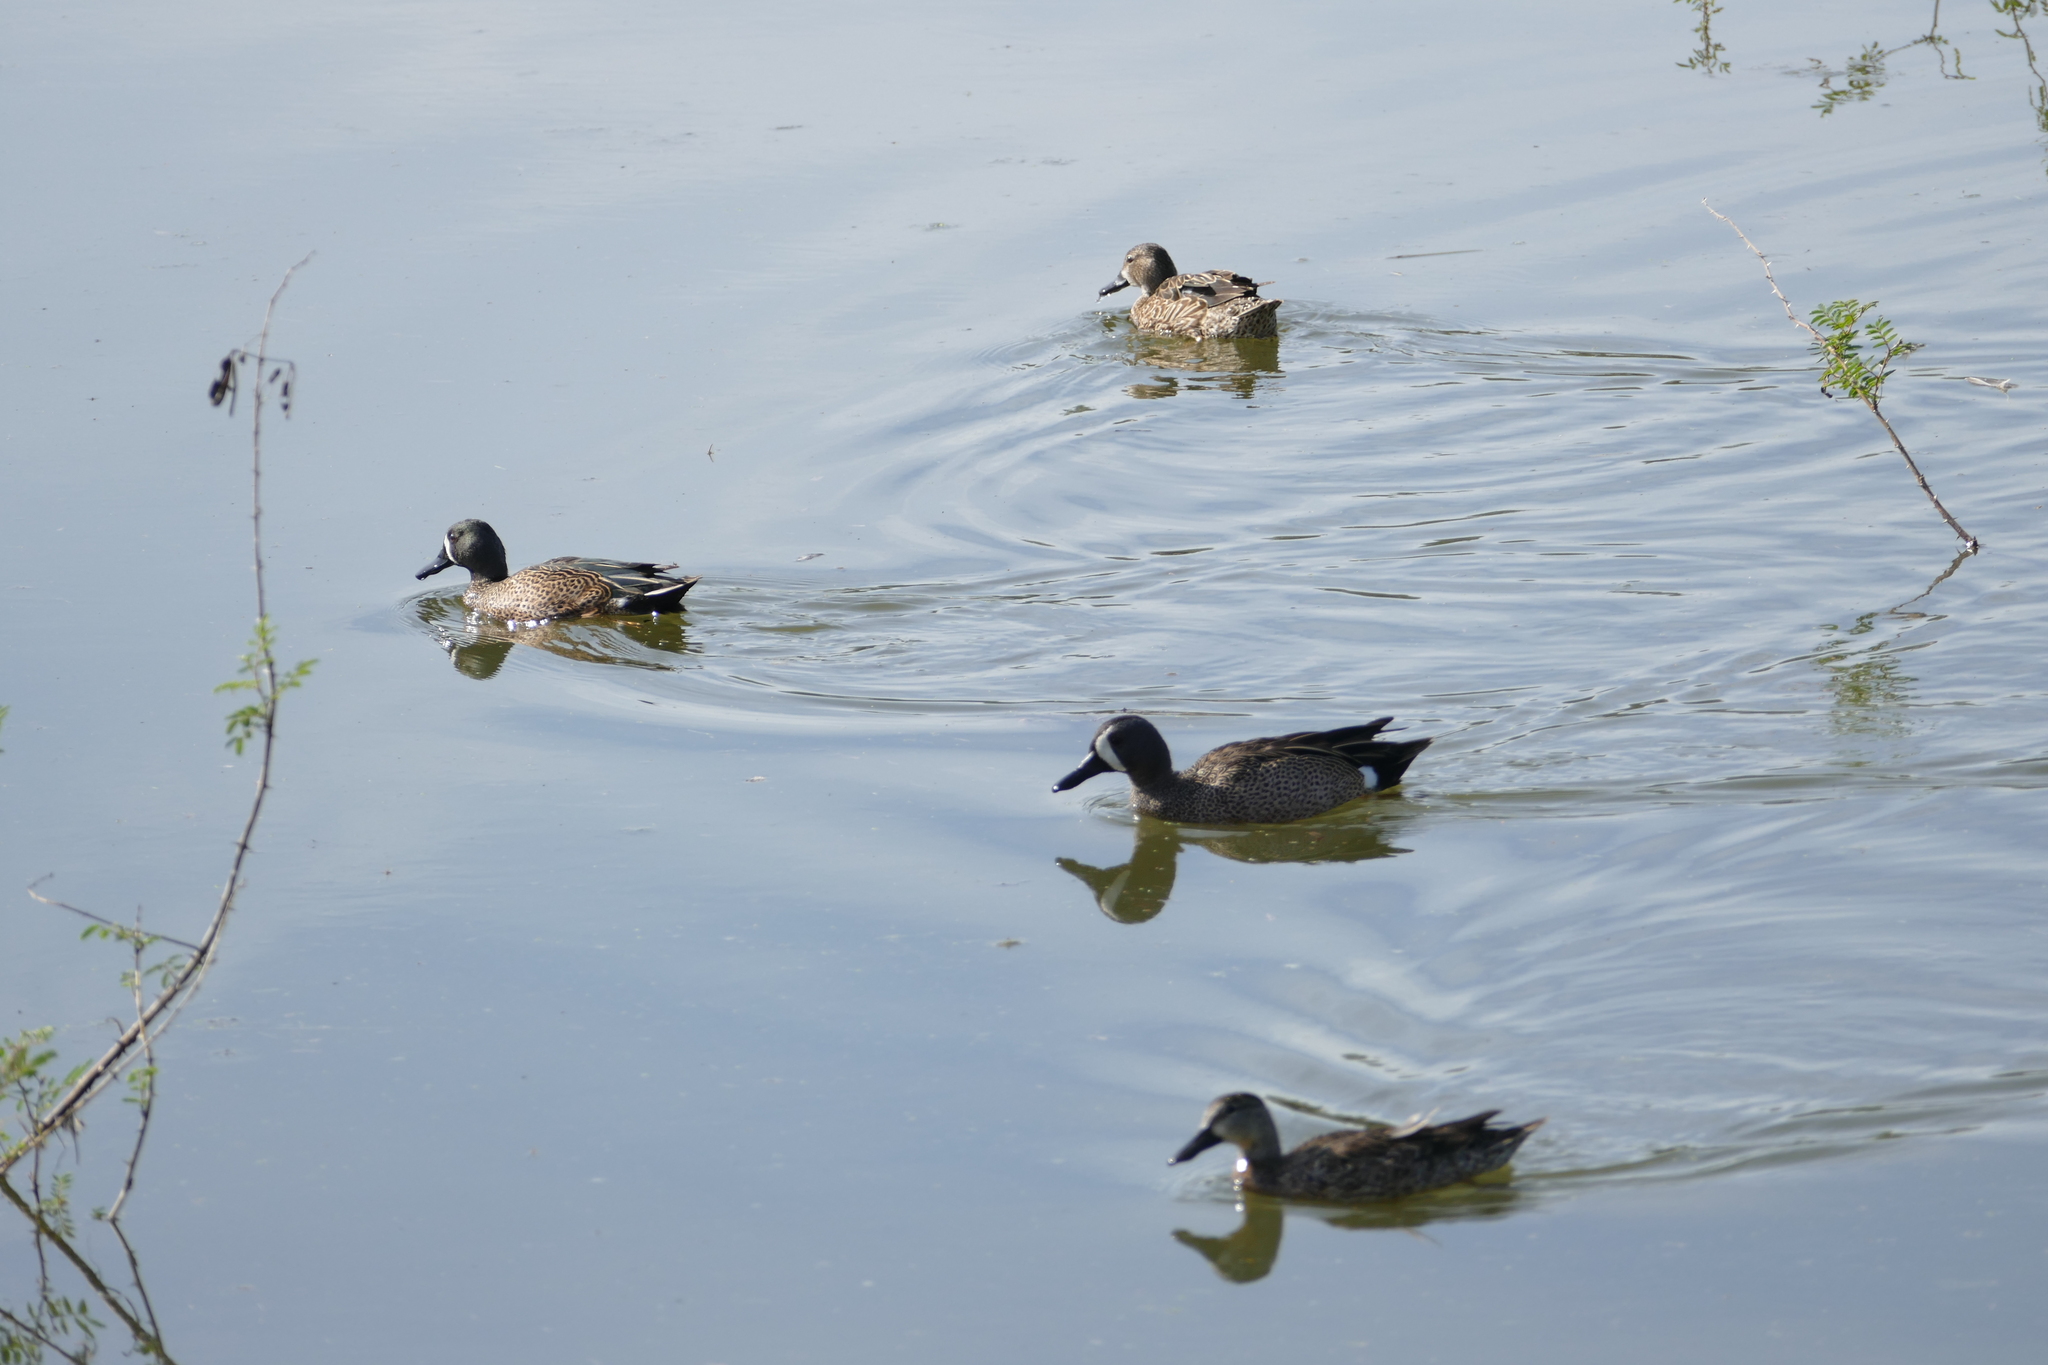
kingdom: Animalia
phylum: Chordata
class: Aves
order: Anseriformes
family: Anatidae
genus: Spatula
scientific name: Spatula discors
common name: Blue-winged teal
